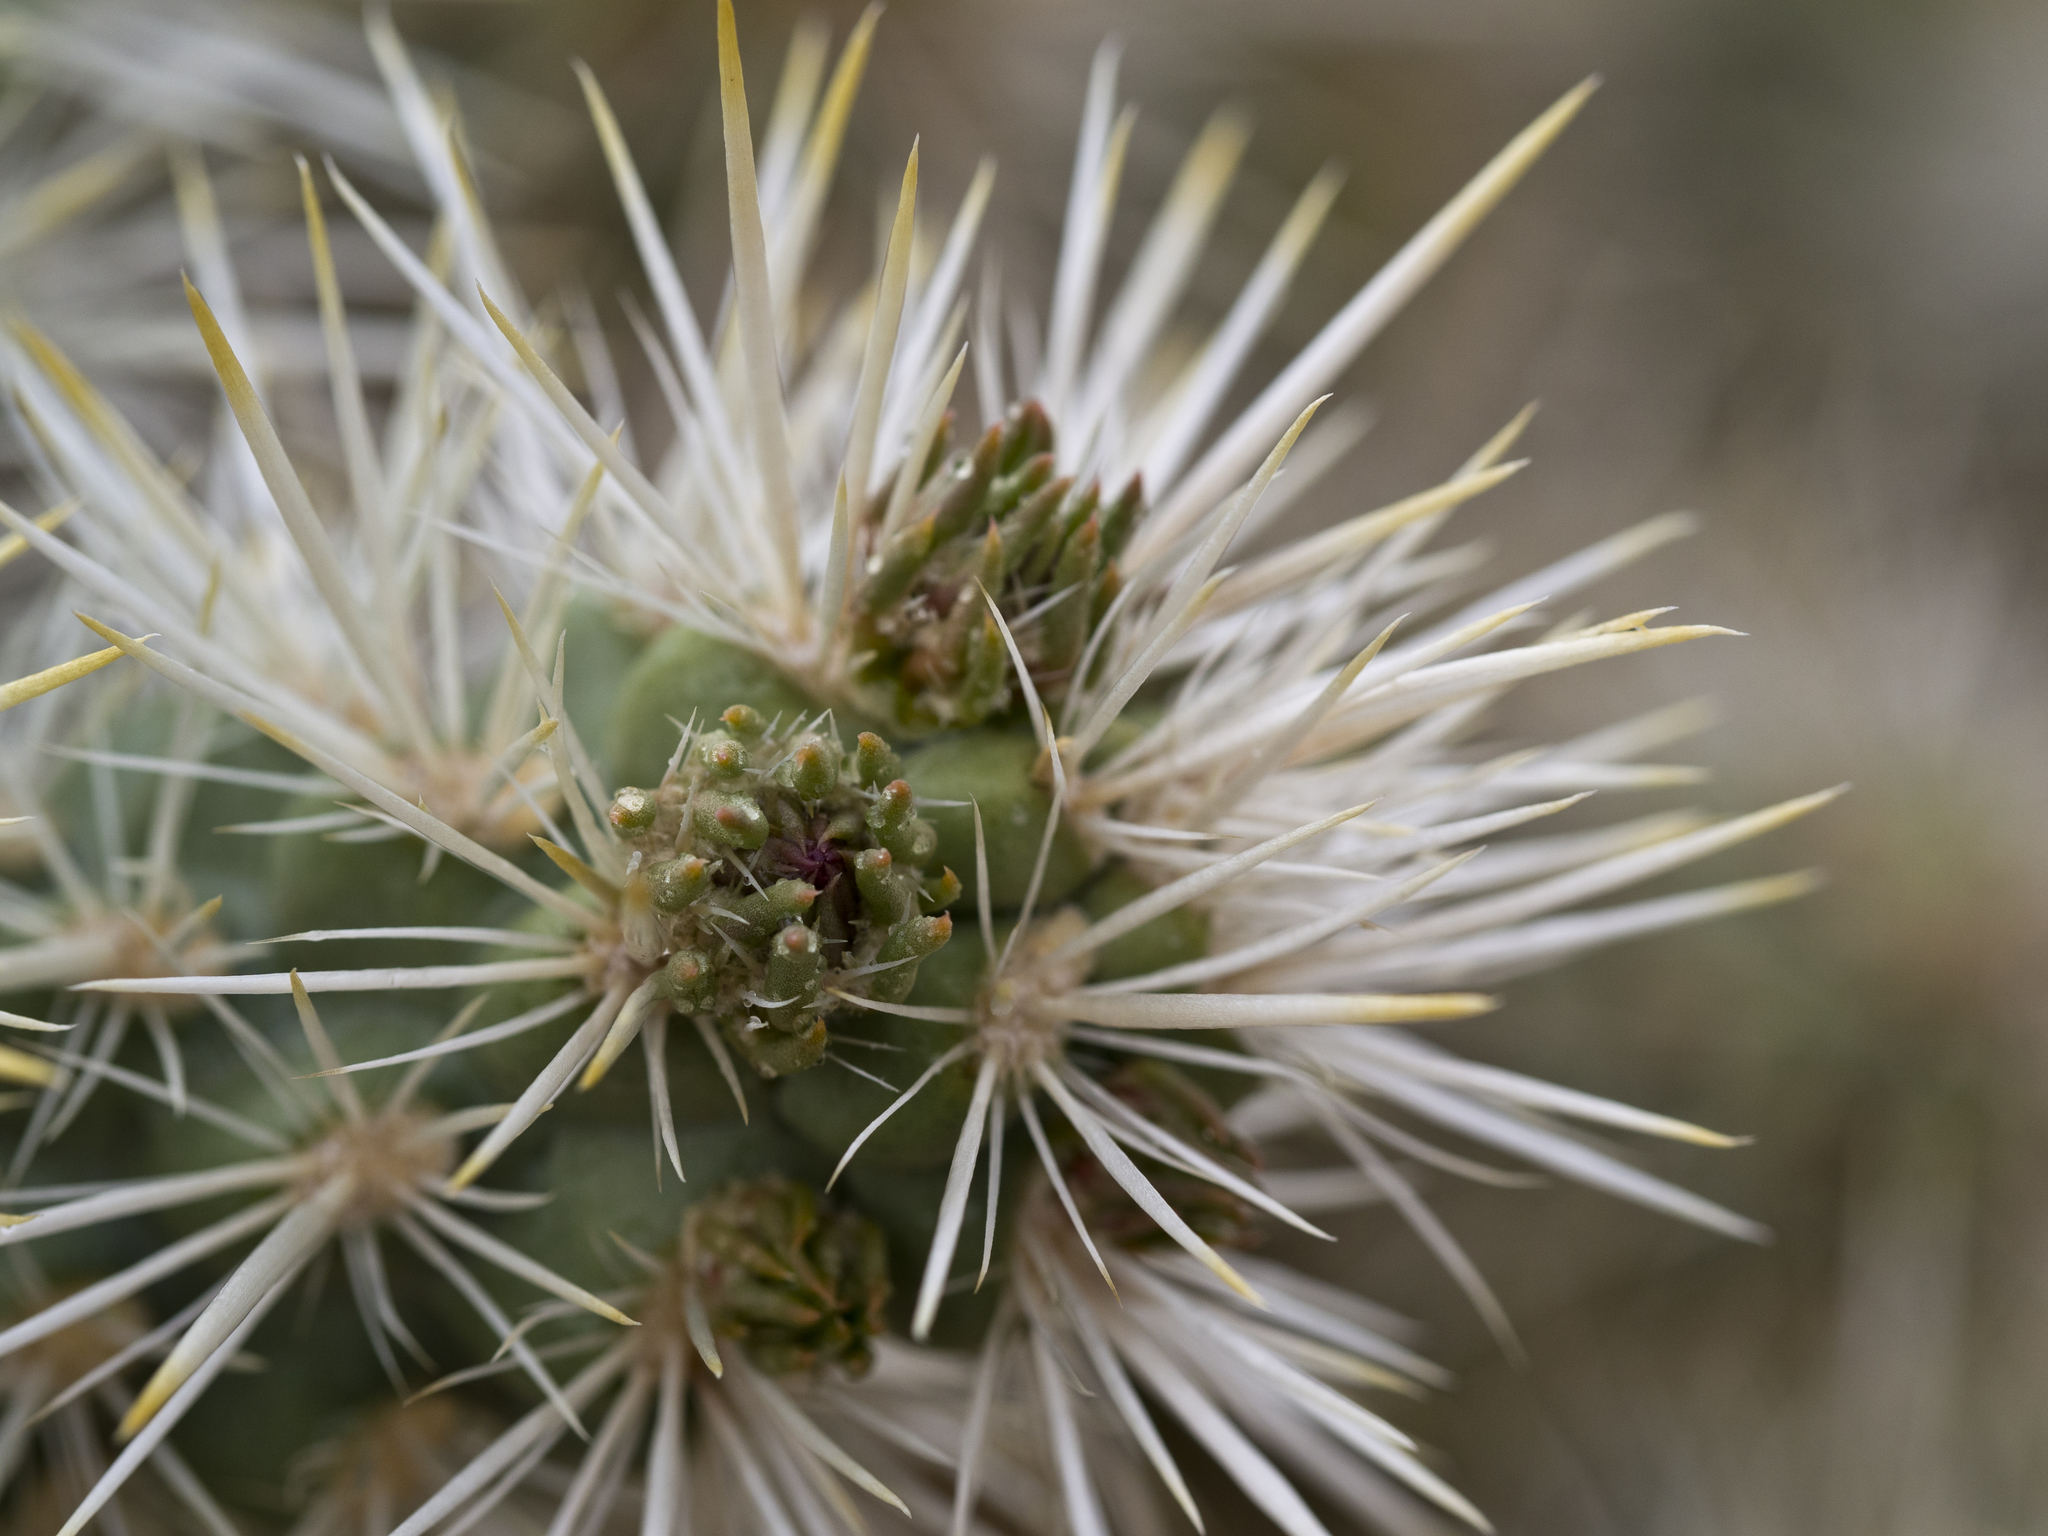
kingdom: Plantae
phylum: Tracheophyta
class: Magnoliopsida
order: Caryophyllales
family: Cactaceae
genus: Cylindropuntia
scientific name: Cylindropuntia echinocarpa
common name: Ground cholla
